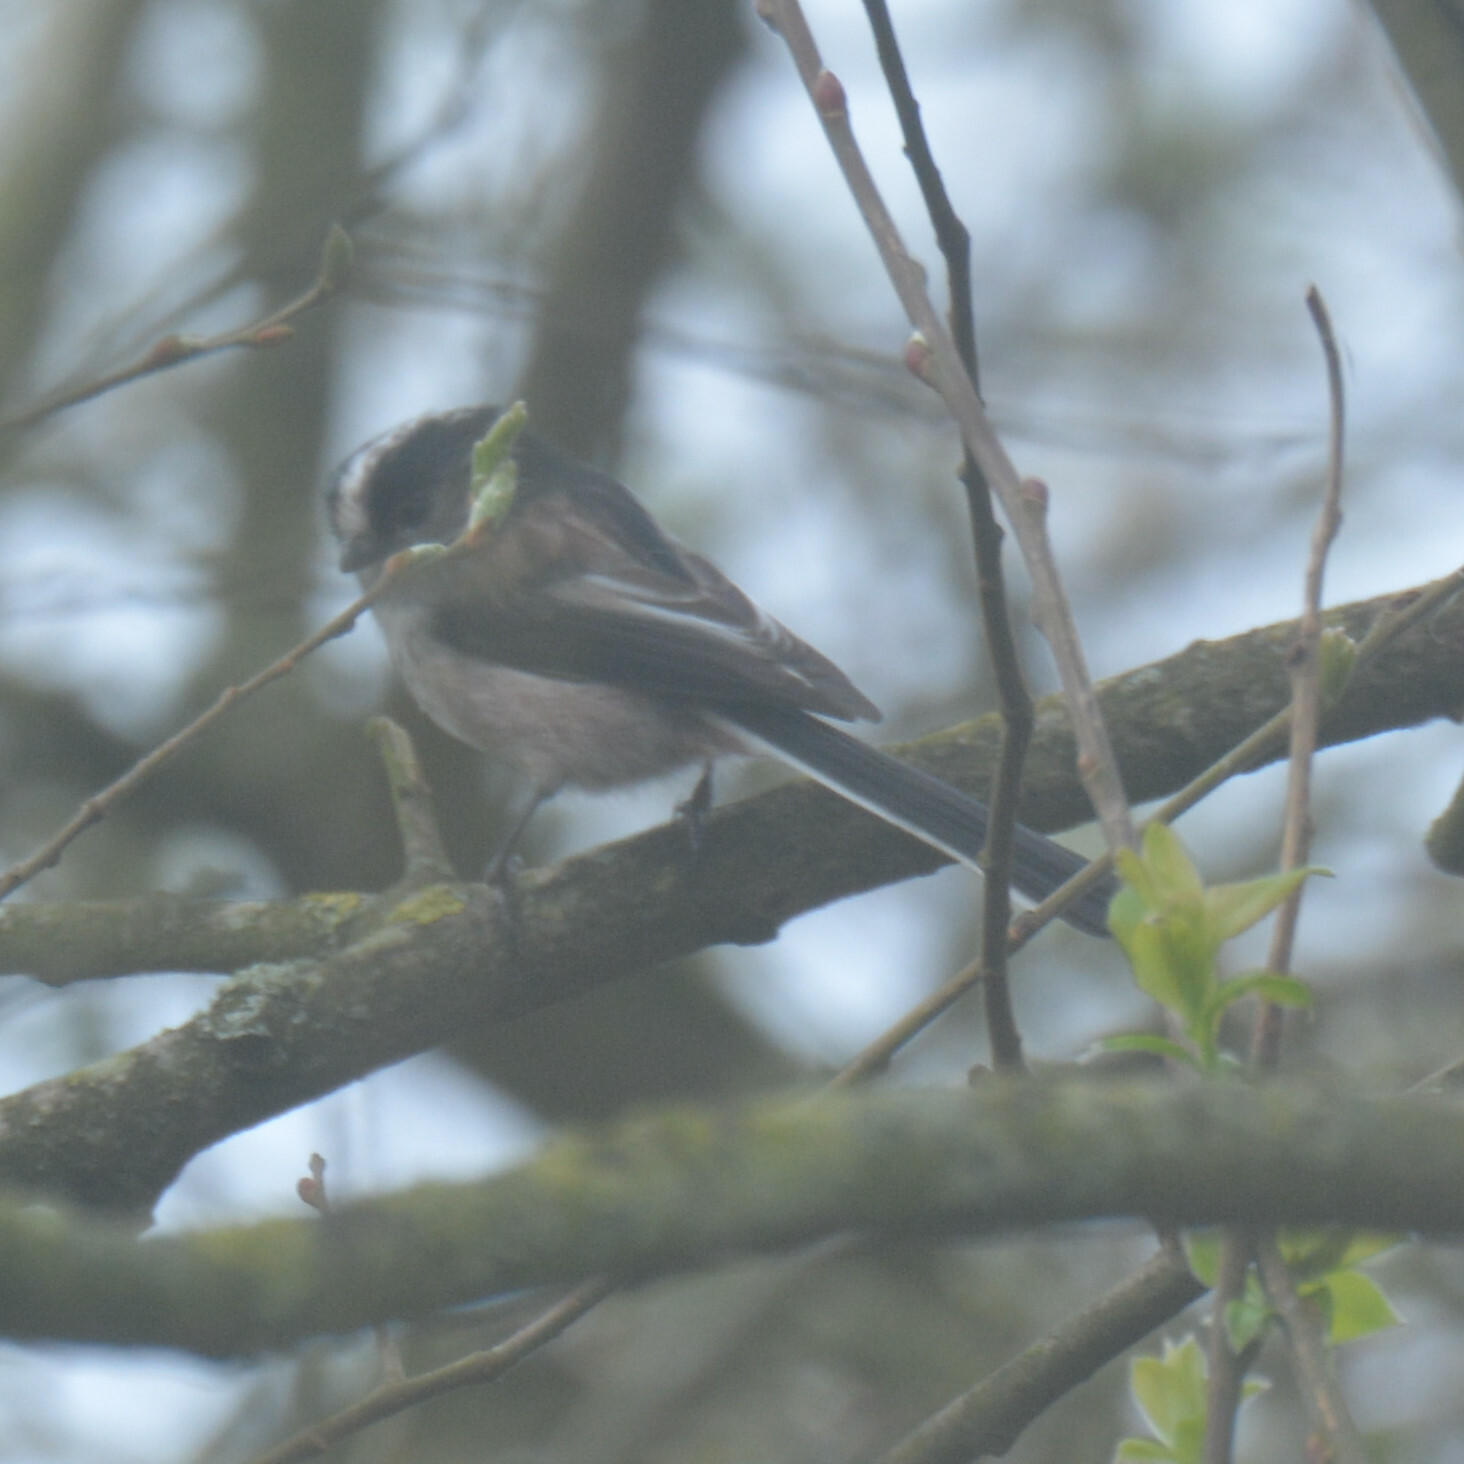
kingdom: Animalia
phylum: Chordata
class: Aves
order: Passeriformes
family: Aegithalidae
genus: Aegithalos
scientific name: Aegithalos caudatus
